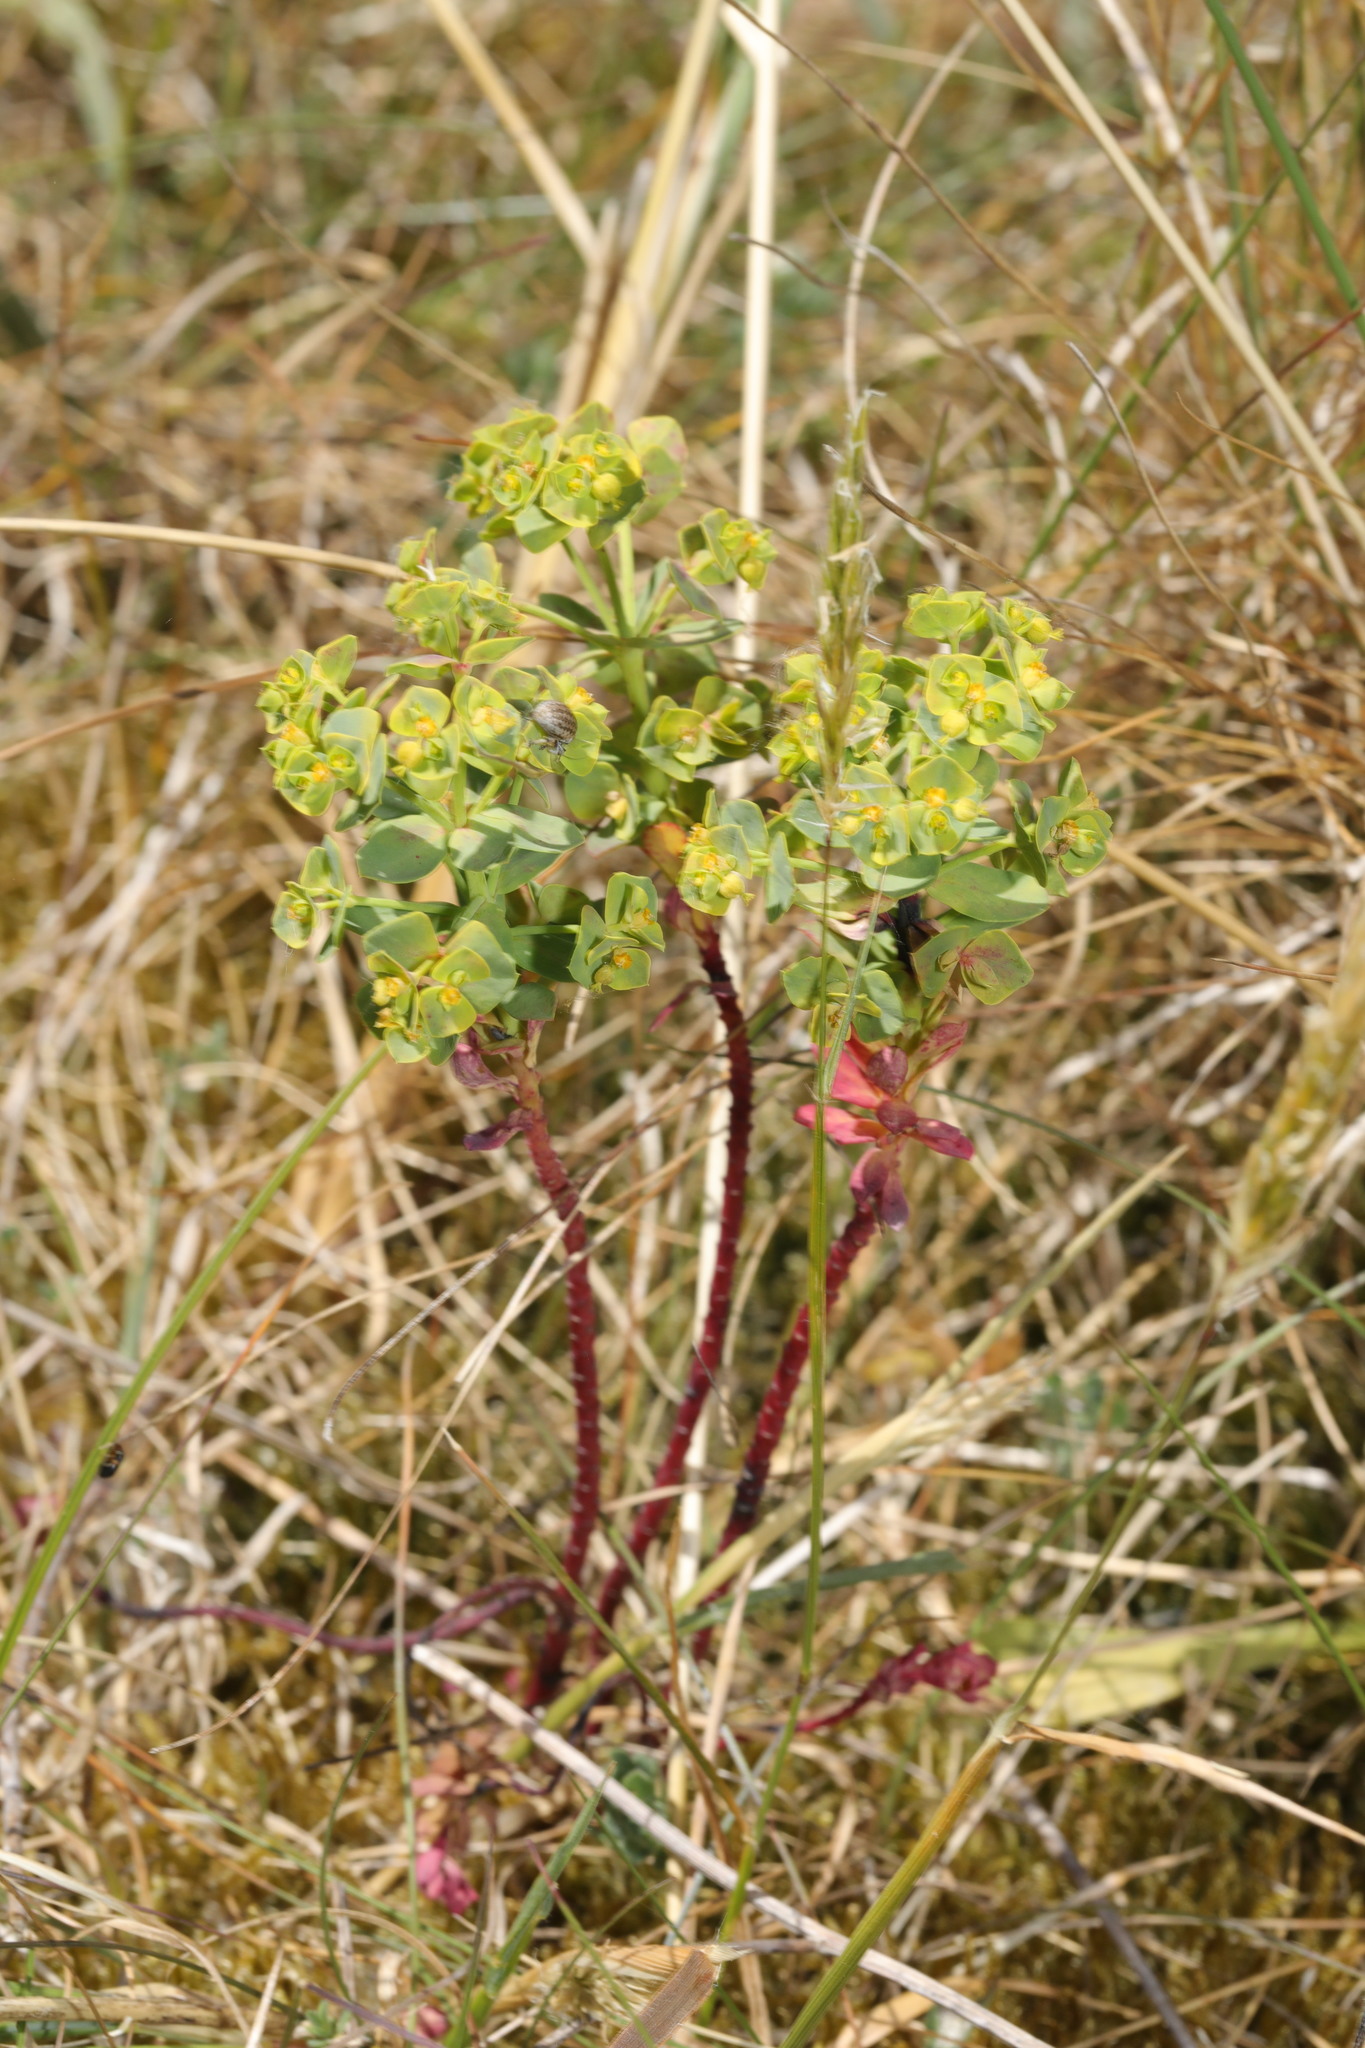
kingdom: Plantae
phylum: Tracheophyta
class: Magnoliopsida
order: Malpighiales
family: Euphorbiaceae
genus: Euphorbia
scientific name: Euphorbia portlandica
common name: Portland spurge
